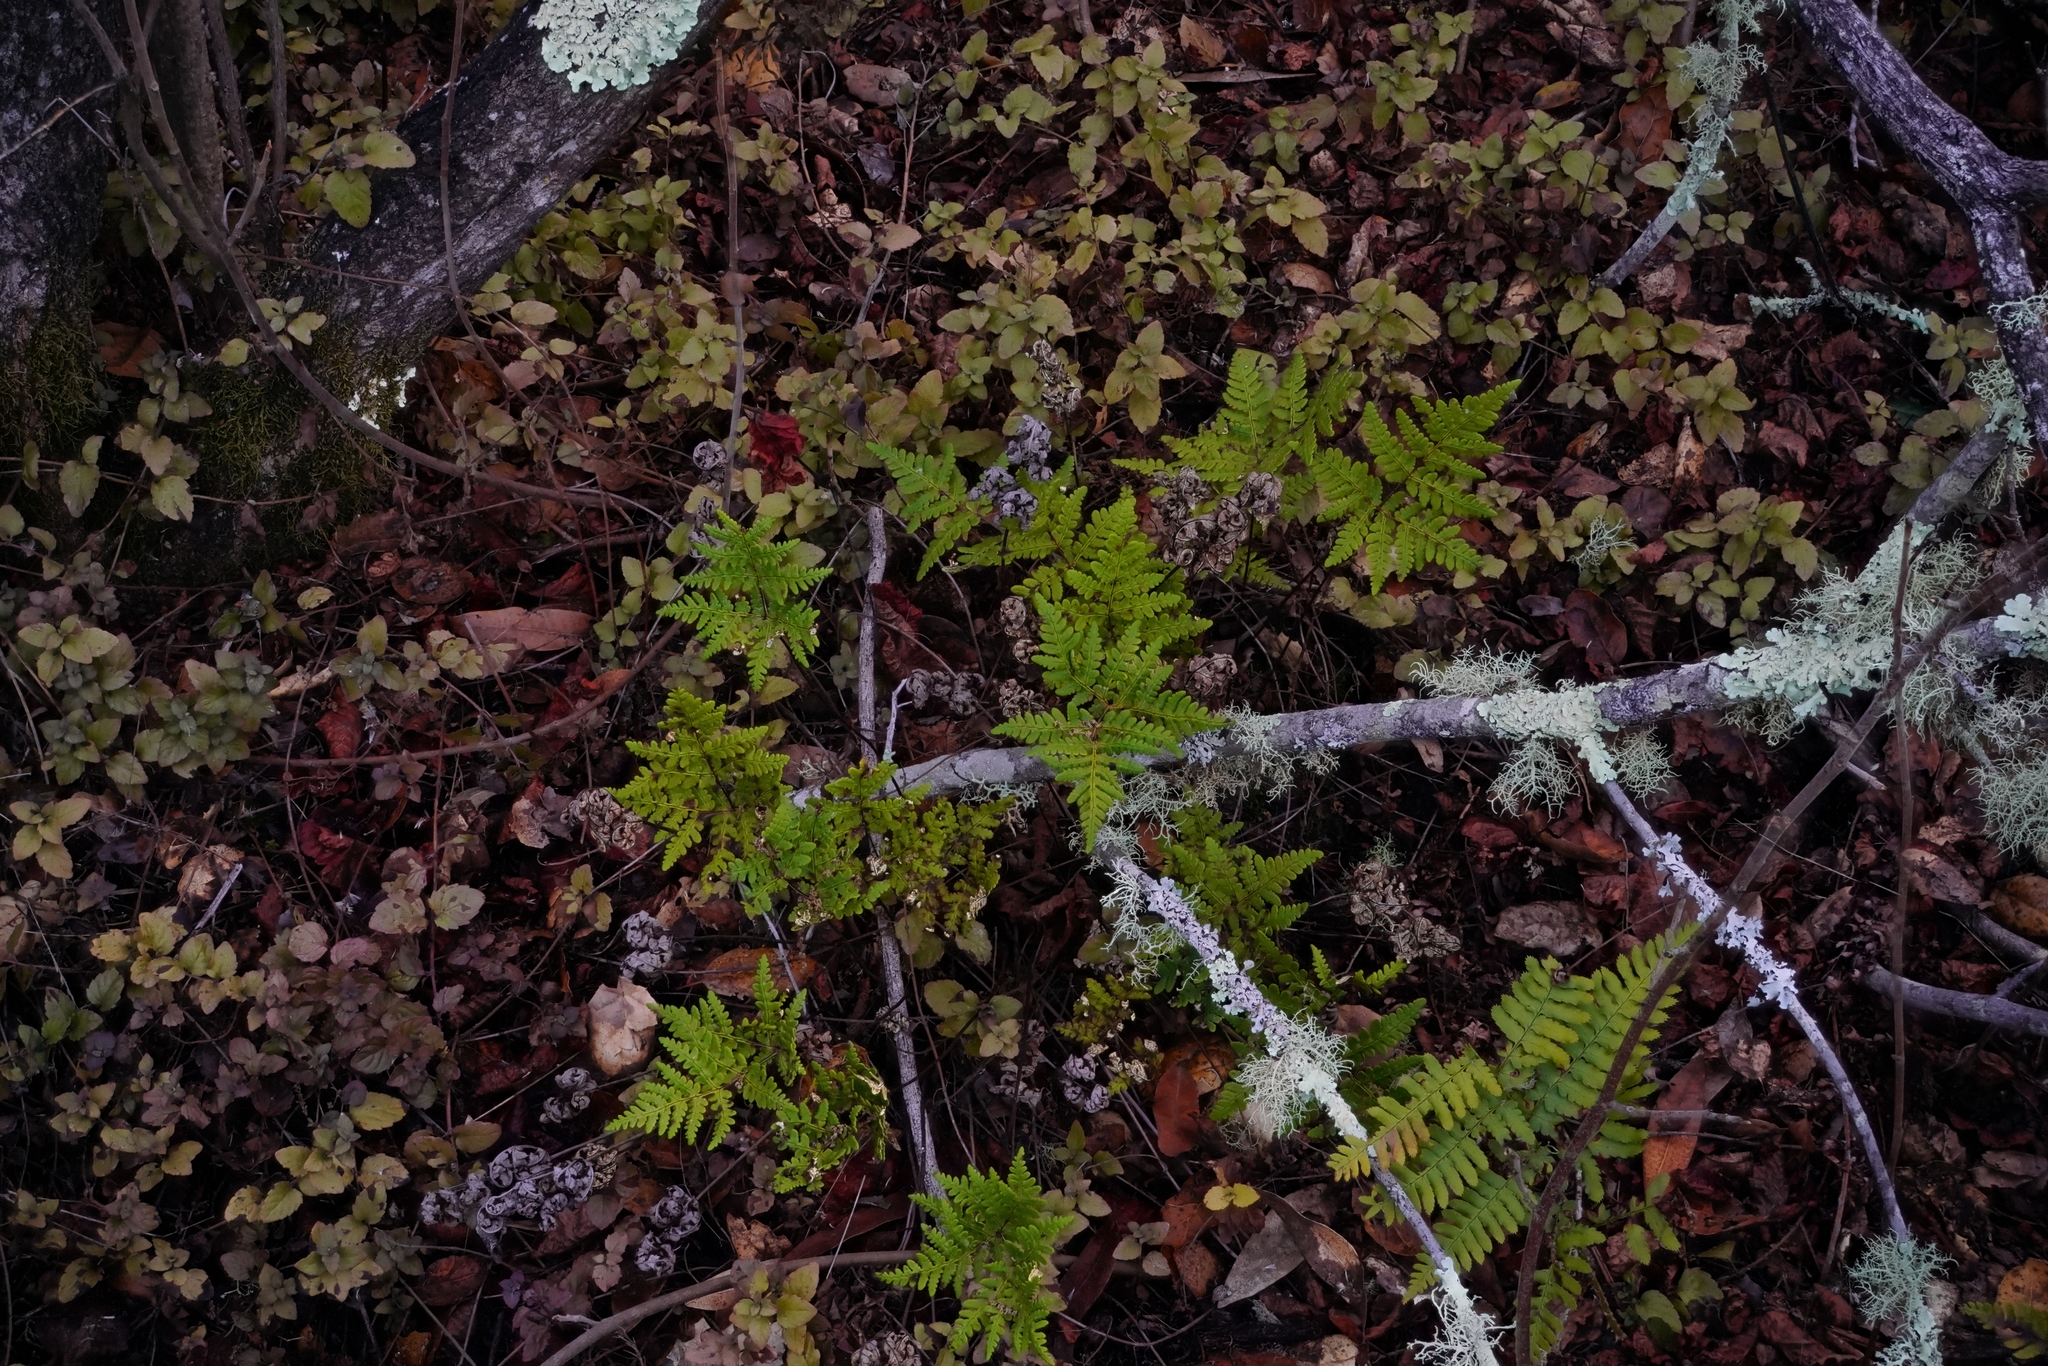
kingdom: Plantae
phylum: Tracheophyta
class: Polypodiopsida
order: Polypodiales
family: Pteridaceae
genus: Pentagramma
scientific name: Pentagramma triangularis
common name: Gold fern
